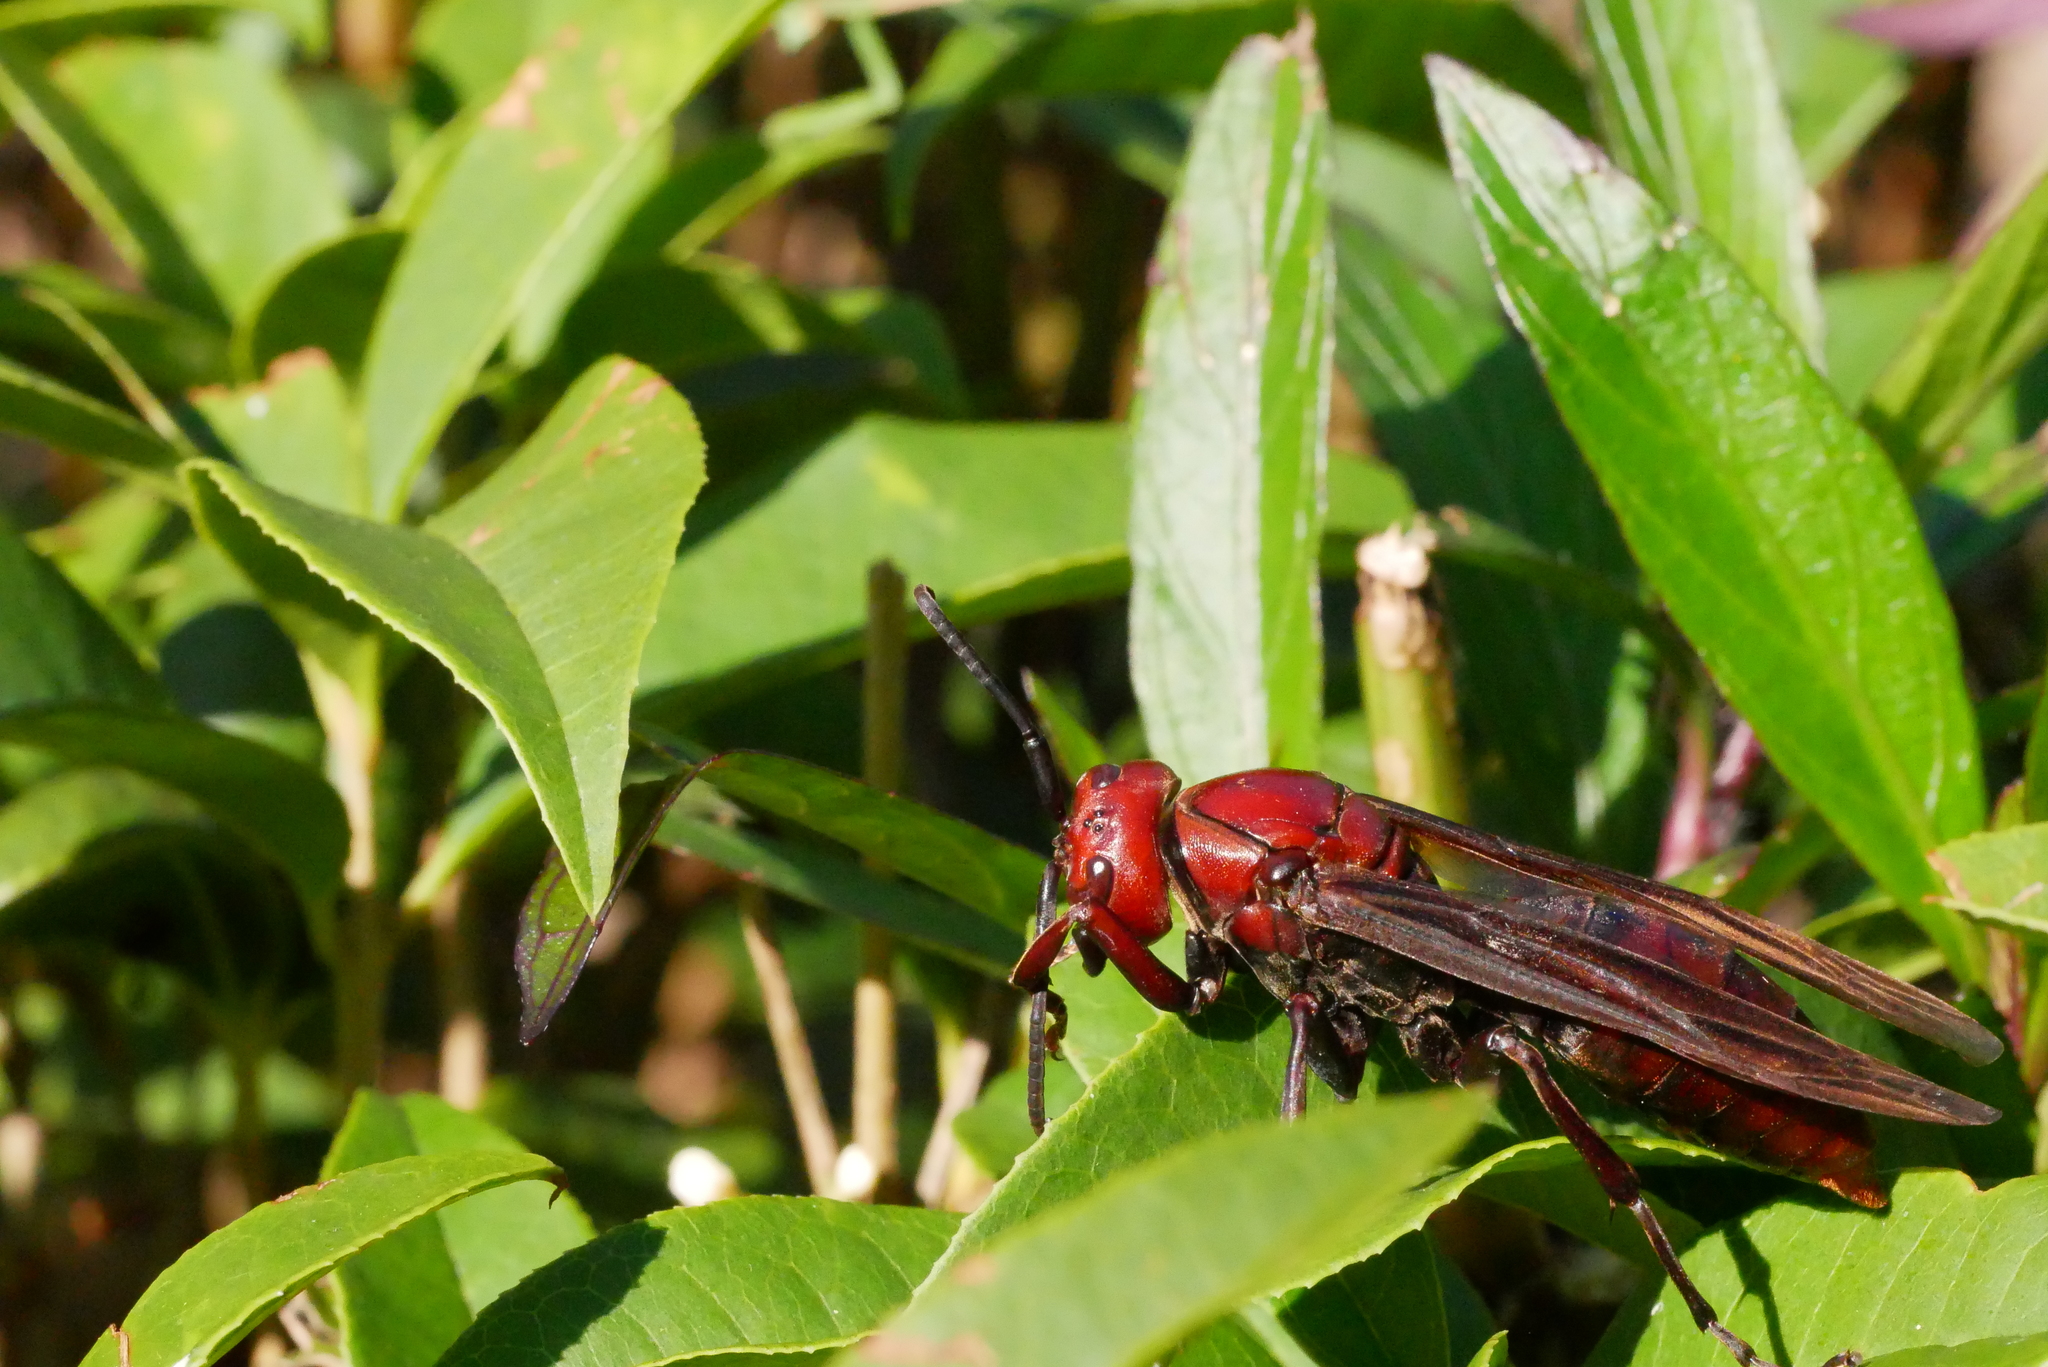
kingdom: Animalia
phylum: Arthropoda
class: Insecta
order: Hymenoptera
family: Eumenidae
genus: Polistes
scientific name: Polistes gigas
